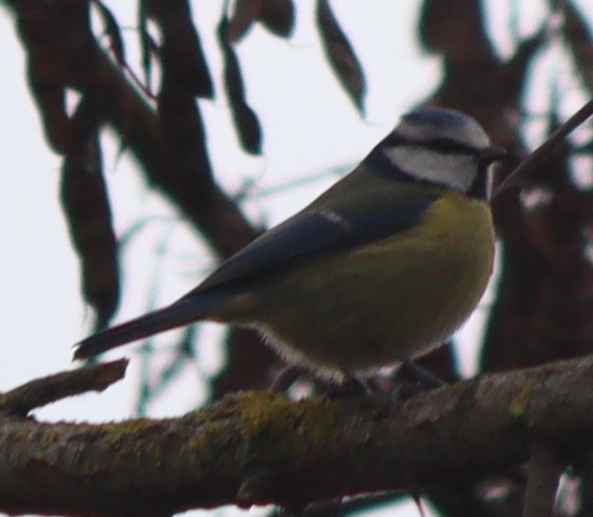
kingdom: Animalia
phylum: Chordata
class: Aves
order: Passeriformes
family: Paridae
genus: Cyanistes
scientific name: Cyanistes caeruleus
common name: Eurasian blue tit
